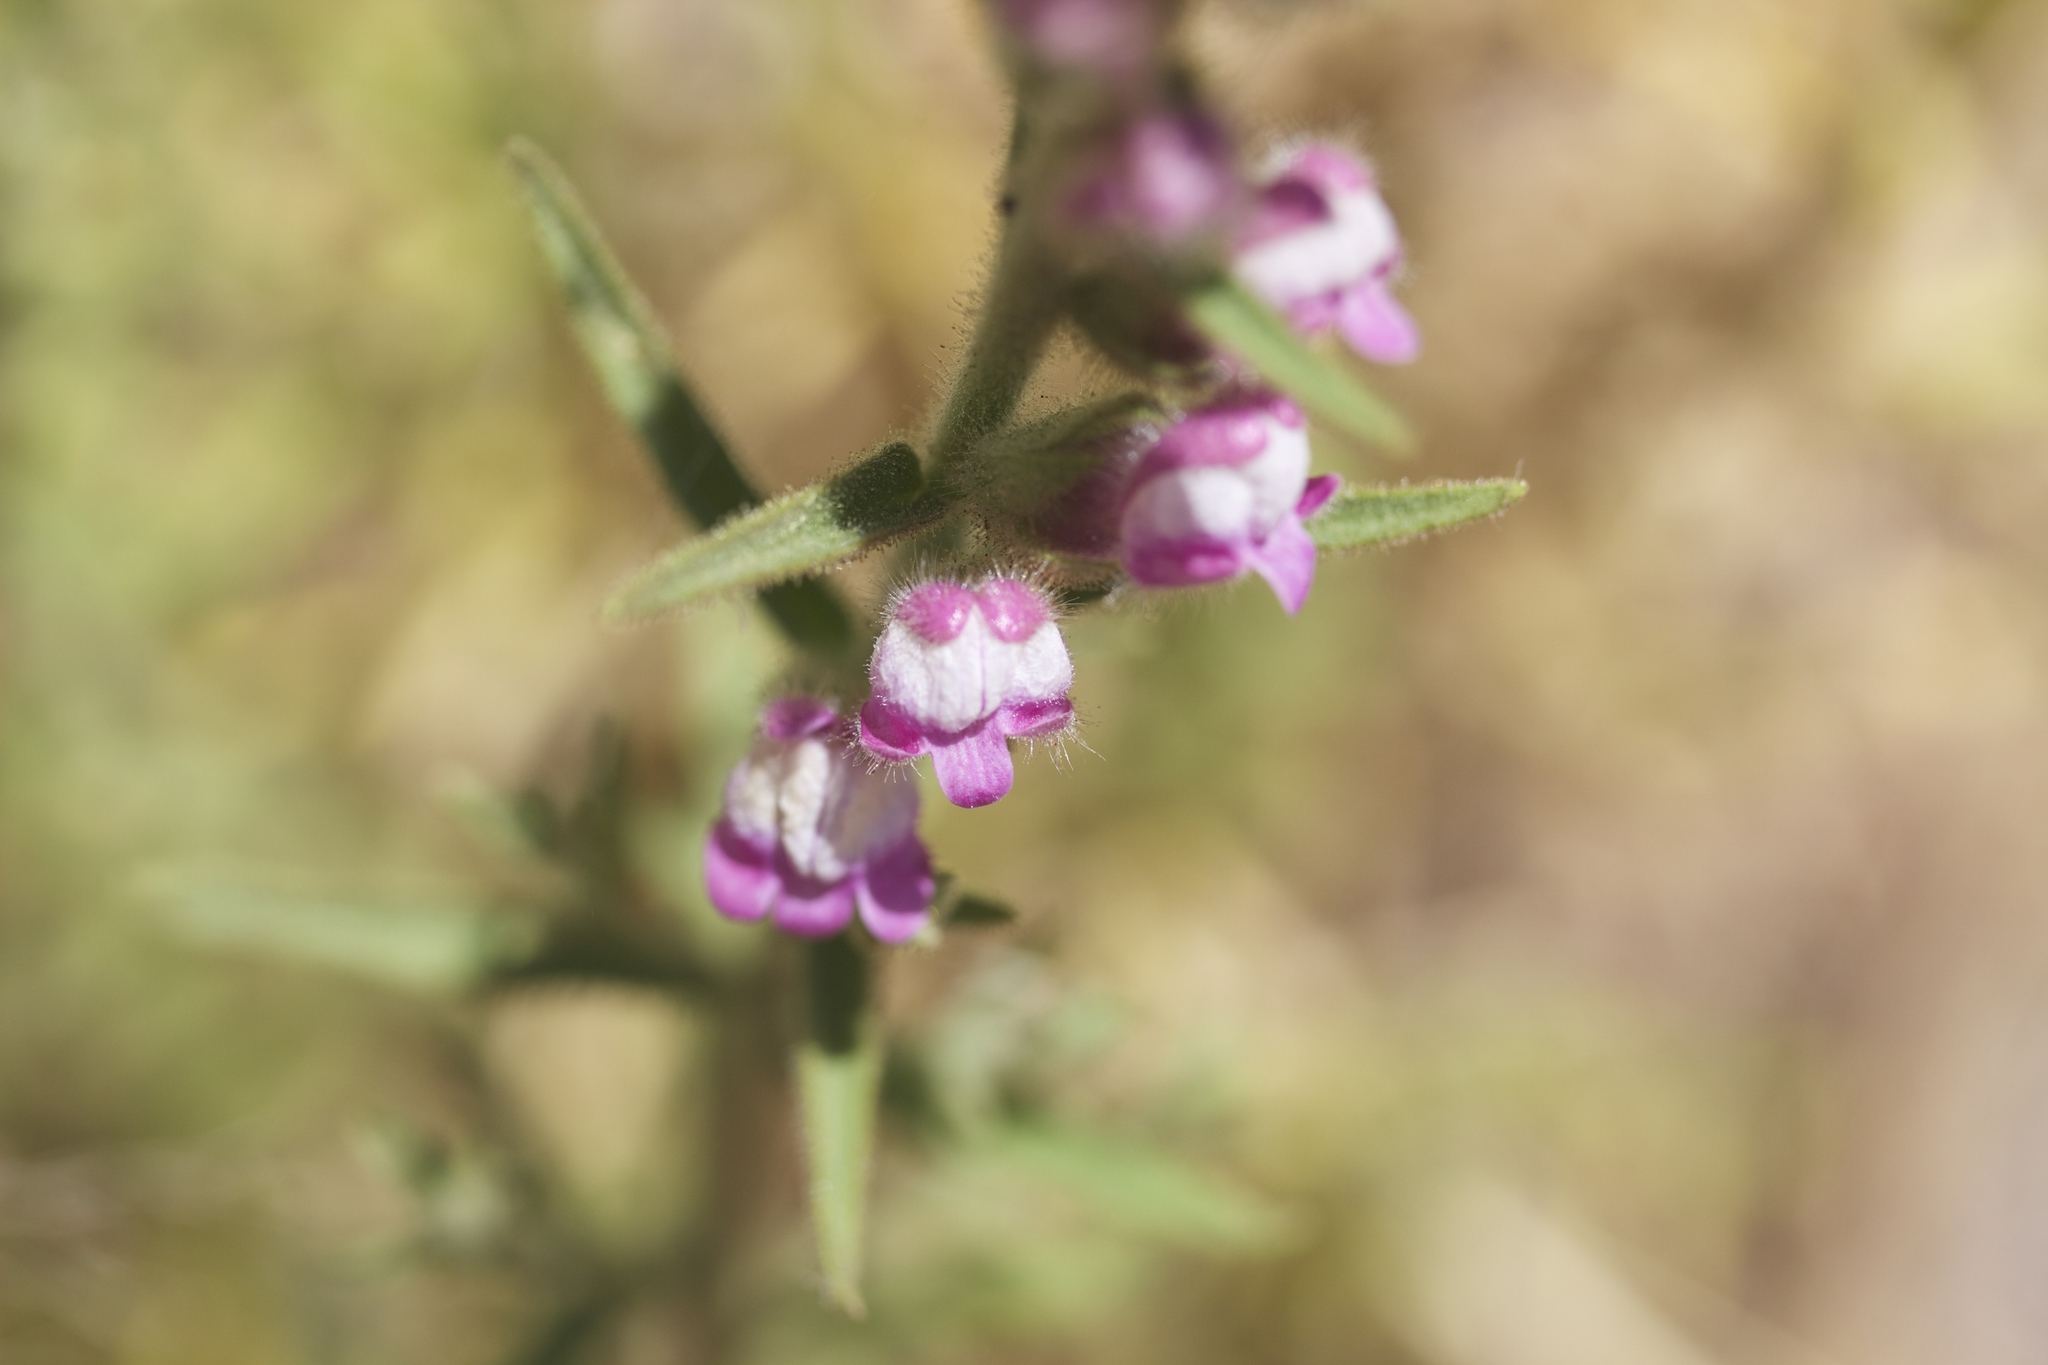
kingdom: Plantae
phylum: Tracheophyta
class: Magnoliopsida
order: Lamiales
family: Plantaginaceae
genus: Sairocarpus
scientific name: Sairocarpus multiflorus
